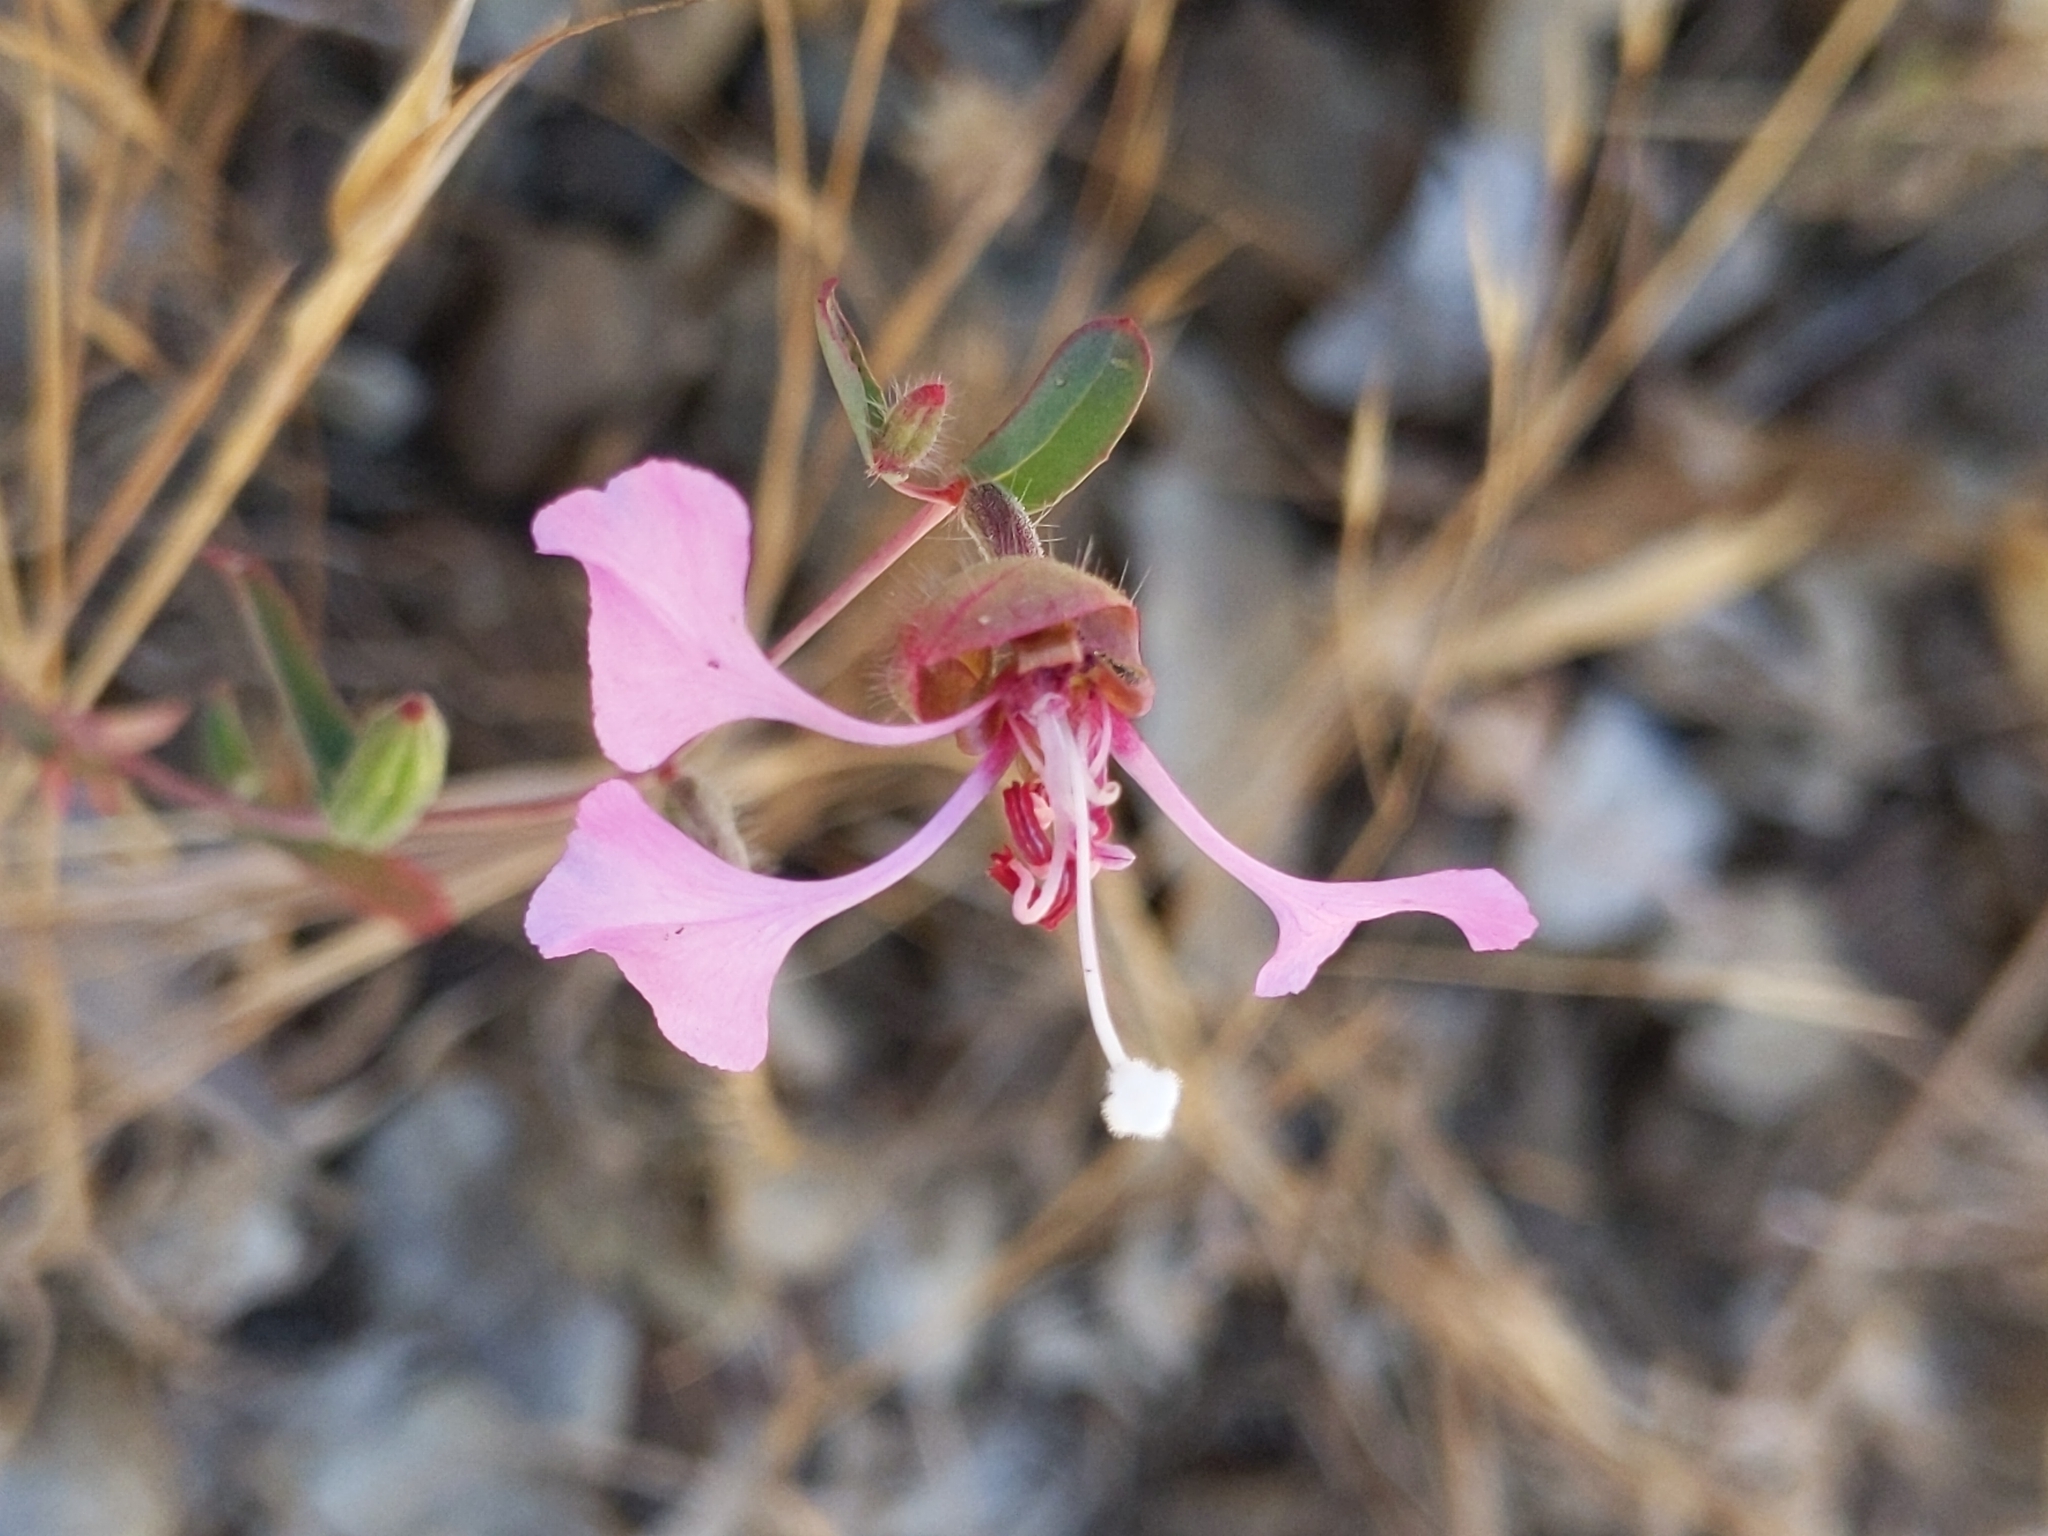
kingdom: Plantae
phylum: Tracheophyta
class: Magnoliopsida
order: Myrtales
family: Onagraceae
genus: Clarkia
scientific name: Clarkia unguiculata
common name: Clarkia
